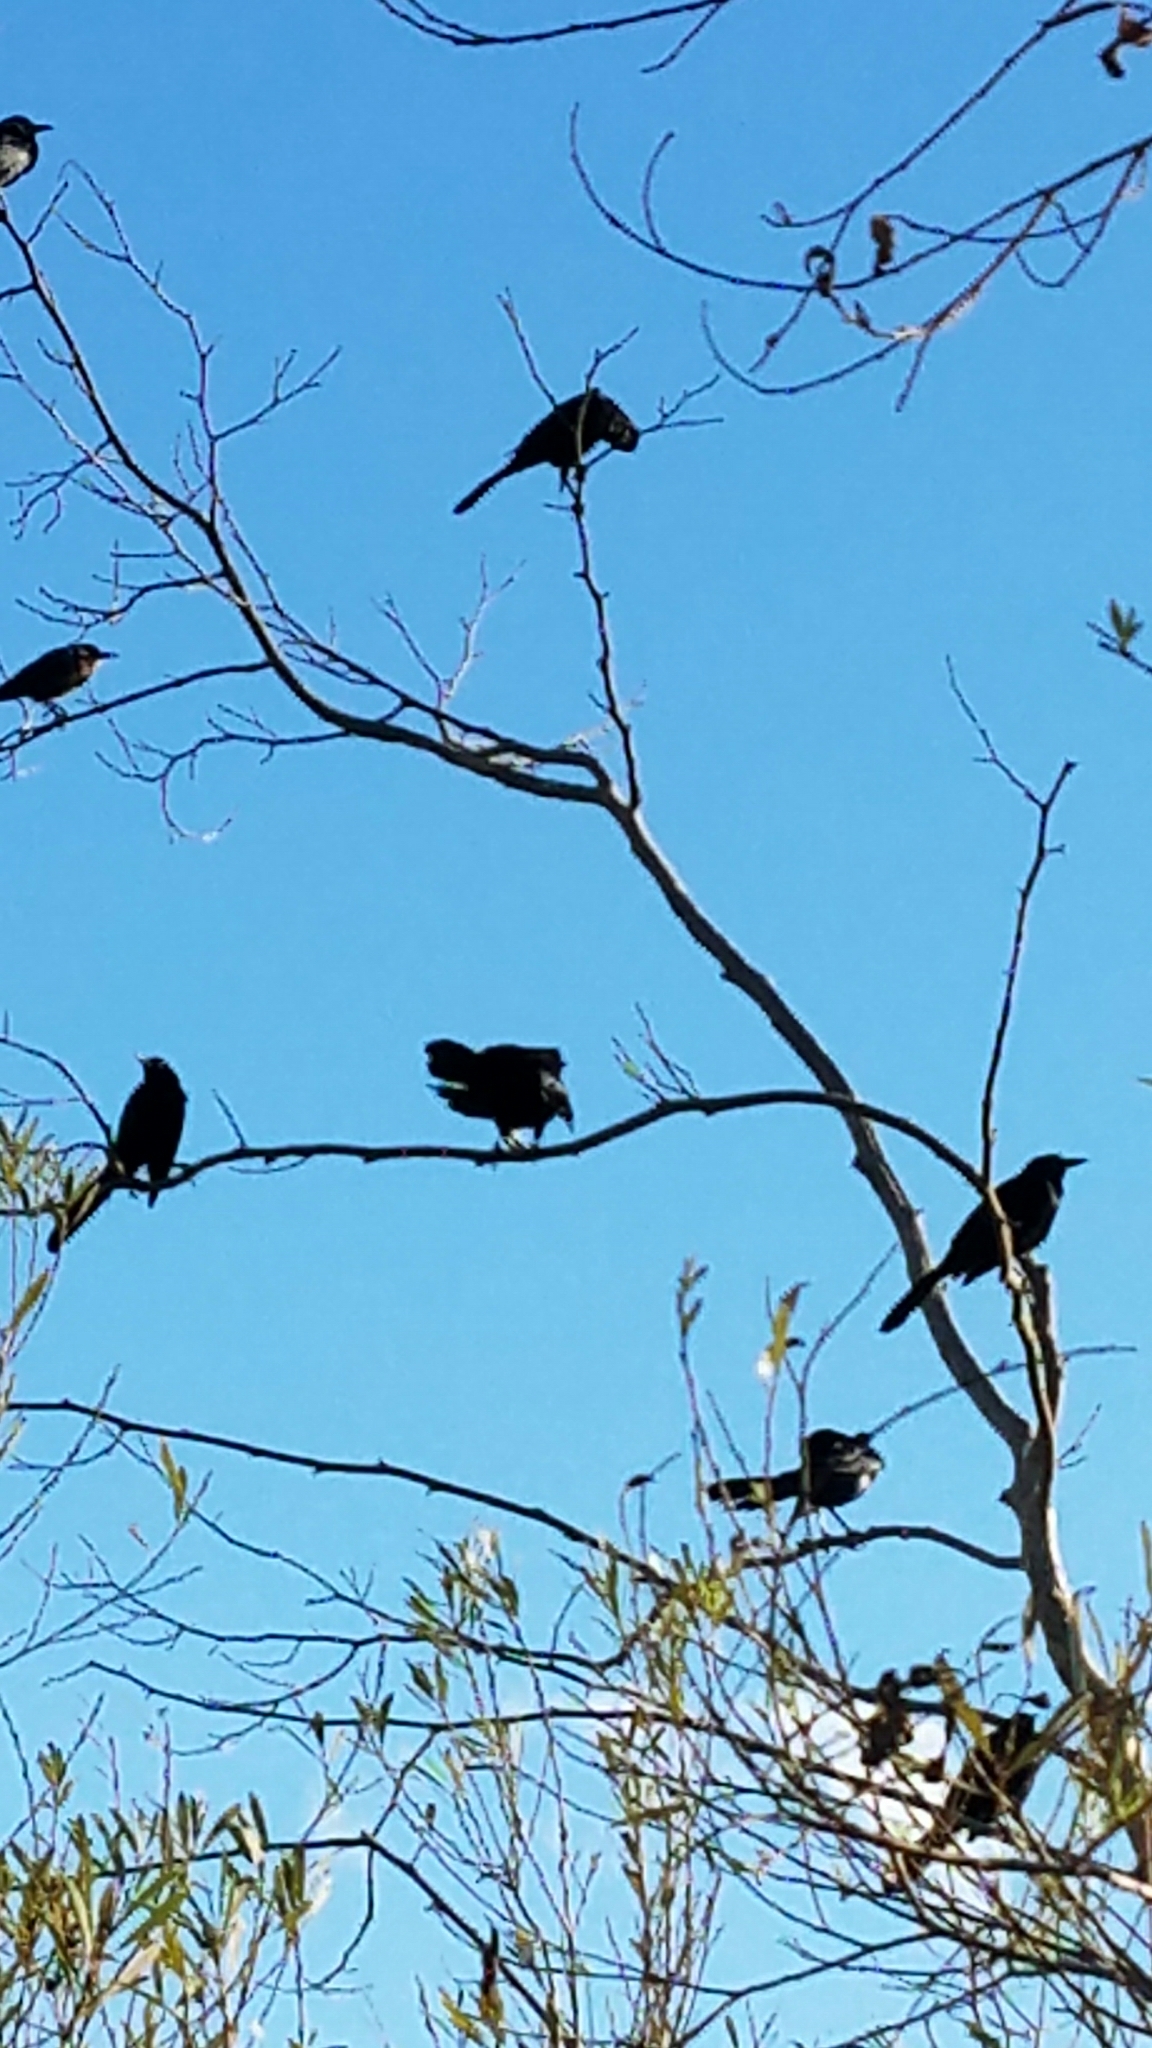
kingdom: Animalia
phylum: Chordata
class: Aves
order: Passeriformes
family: Icteridae
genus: Quiscalus
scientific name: Quiscalus mexicanus
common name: Great-tailed grackle
